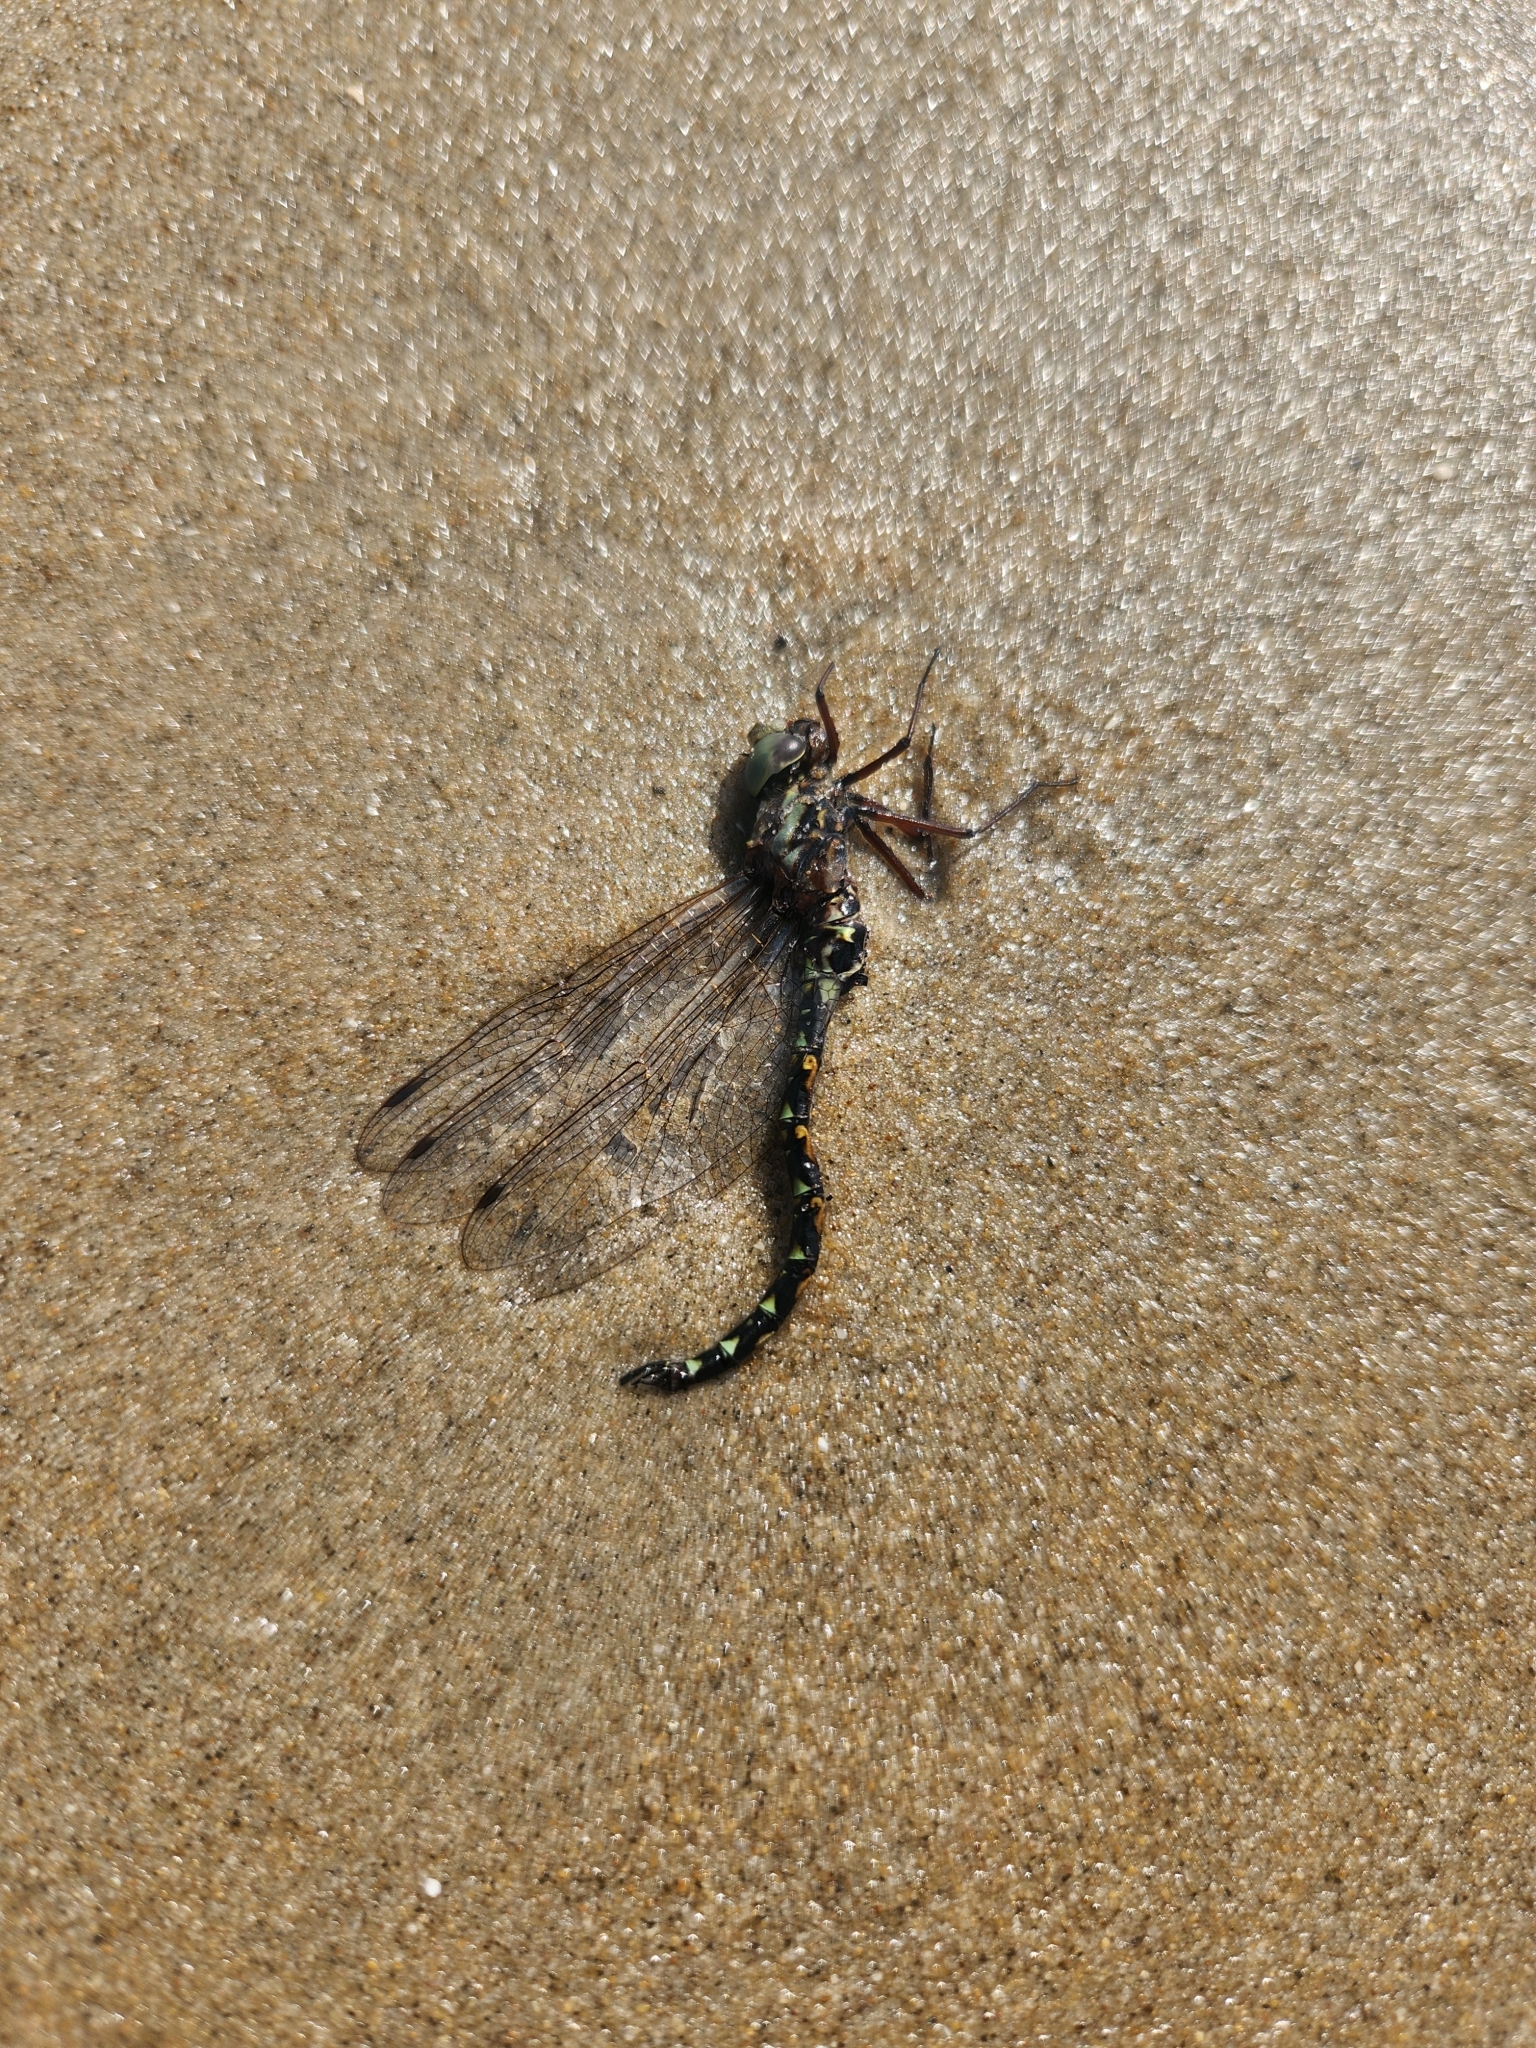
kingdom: Animalia
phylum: Arthropoda
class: Insecta
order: Odonata
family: Aeshnidae
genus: Gomphaeschna
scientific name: Gomphaeschna furcillata
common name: Harlequin darner
